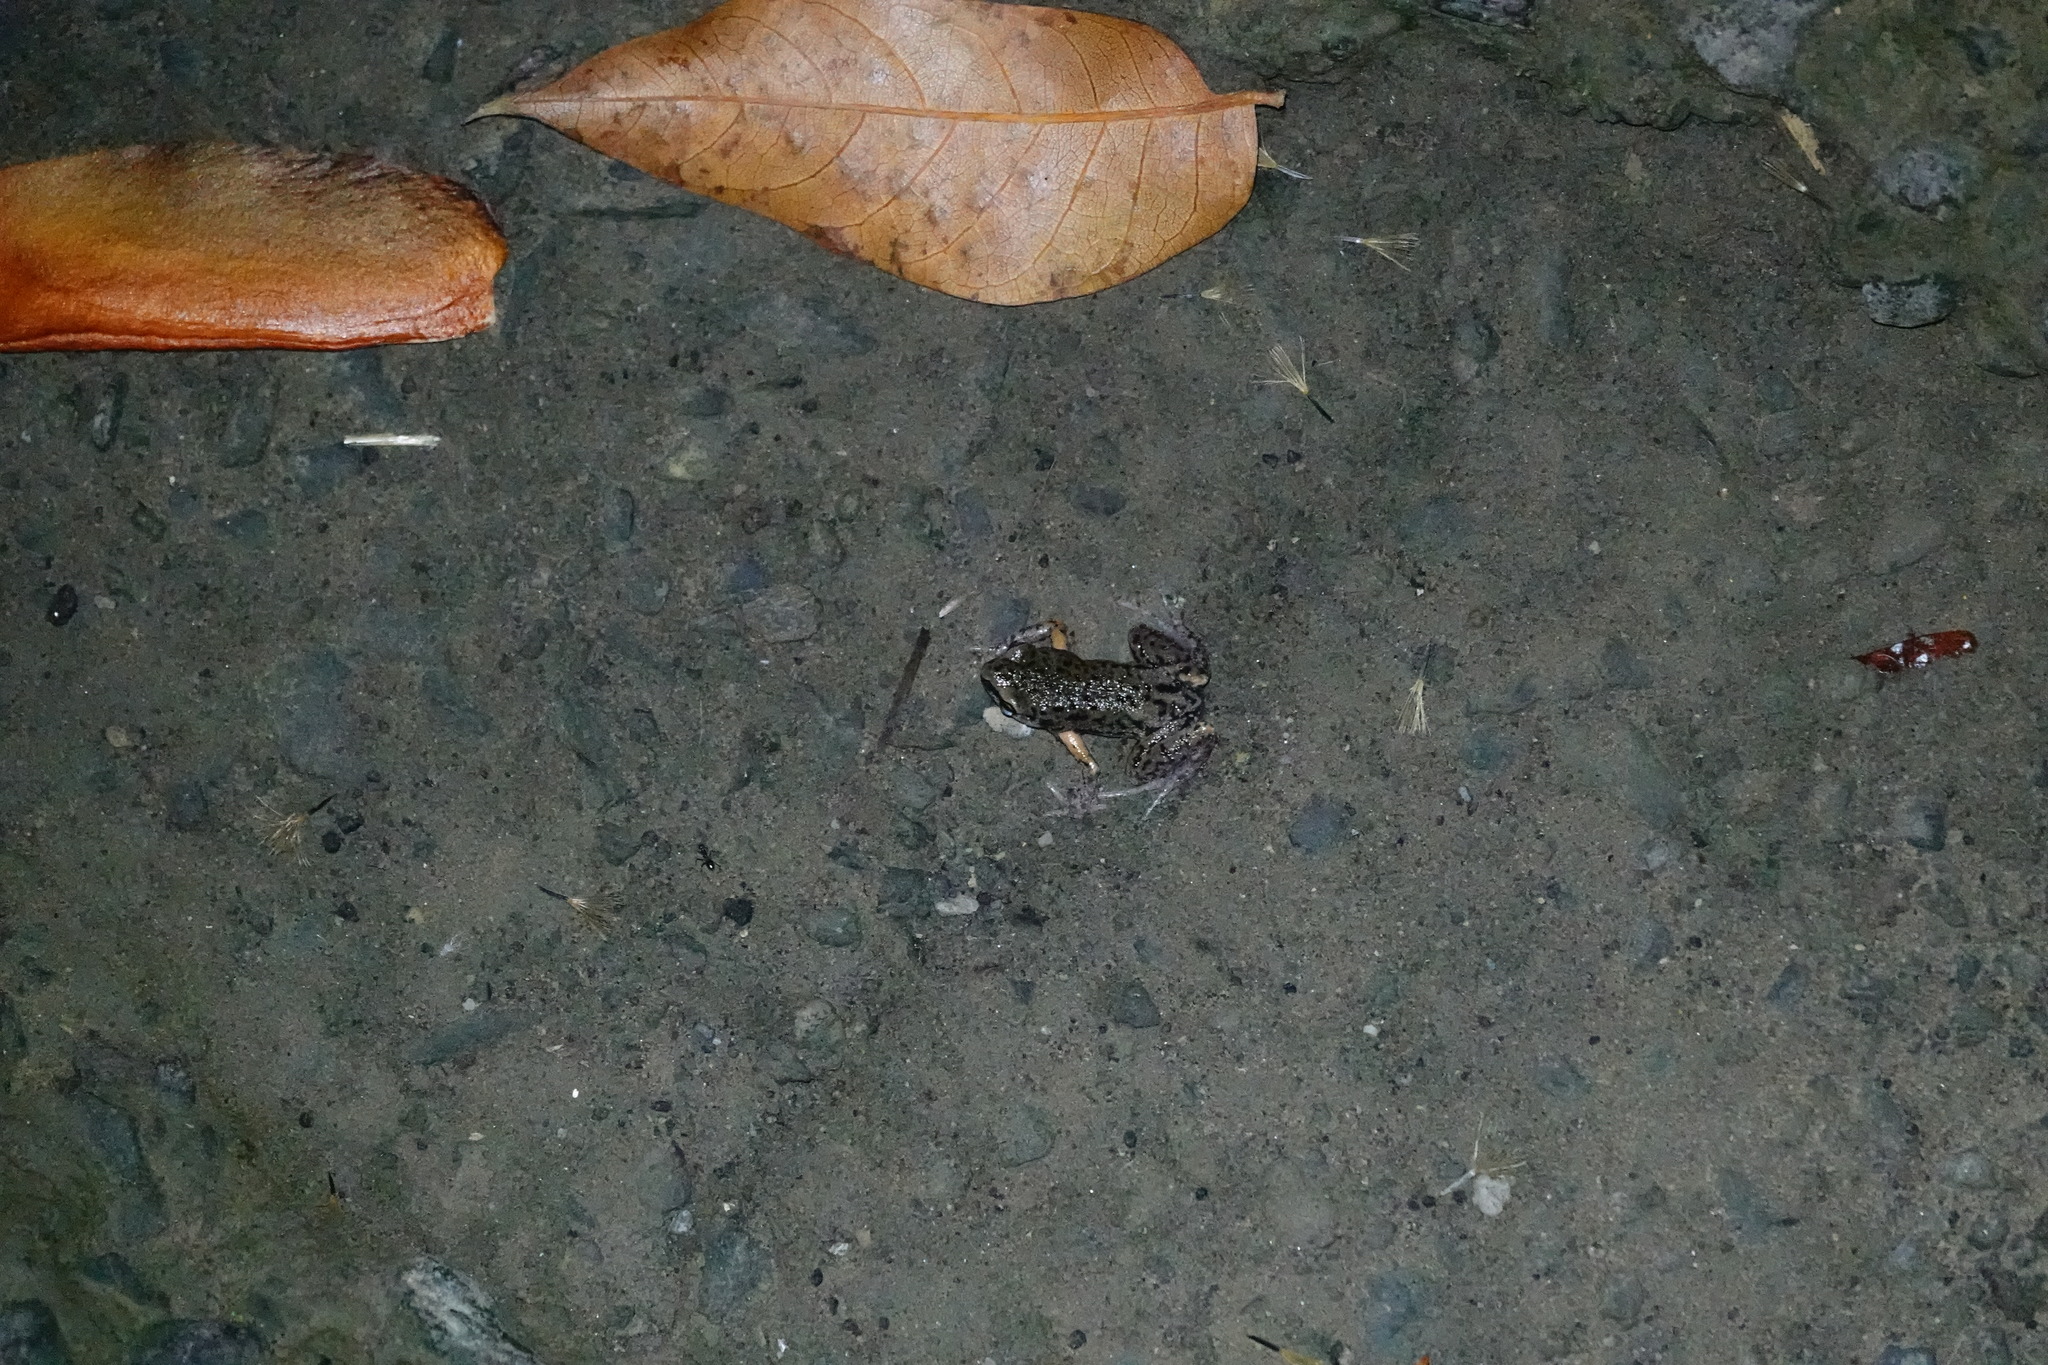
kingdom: Animalia
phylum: Chordata
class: Amphibia
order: Anura
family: Microhylidae
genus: Micryletta
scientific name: Micryletta steinegeri
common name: Stejneger's paddy frog
